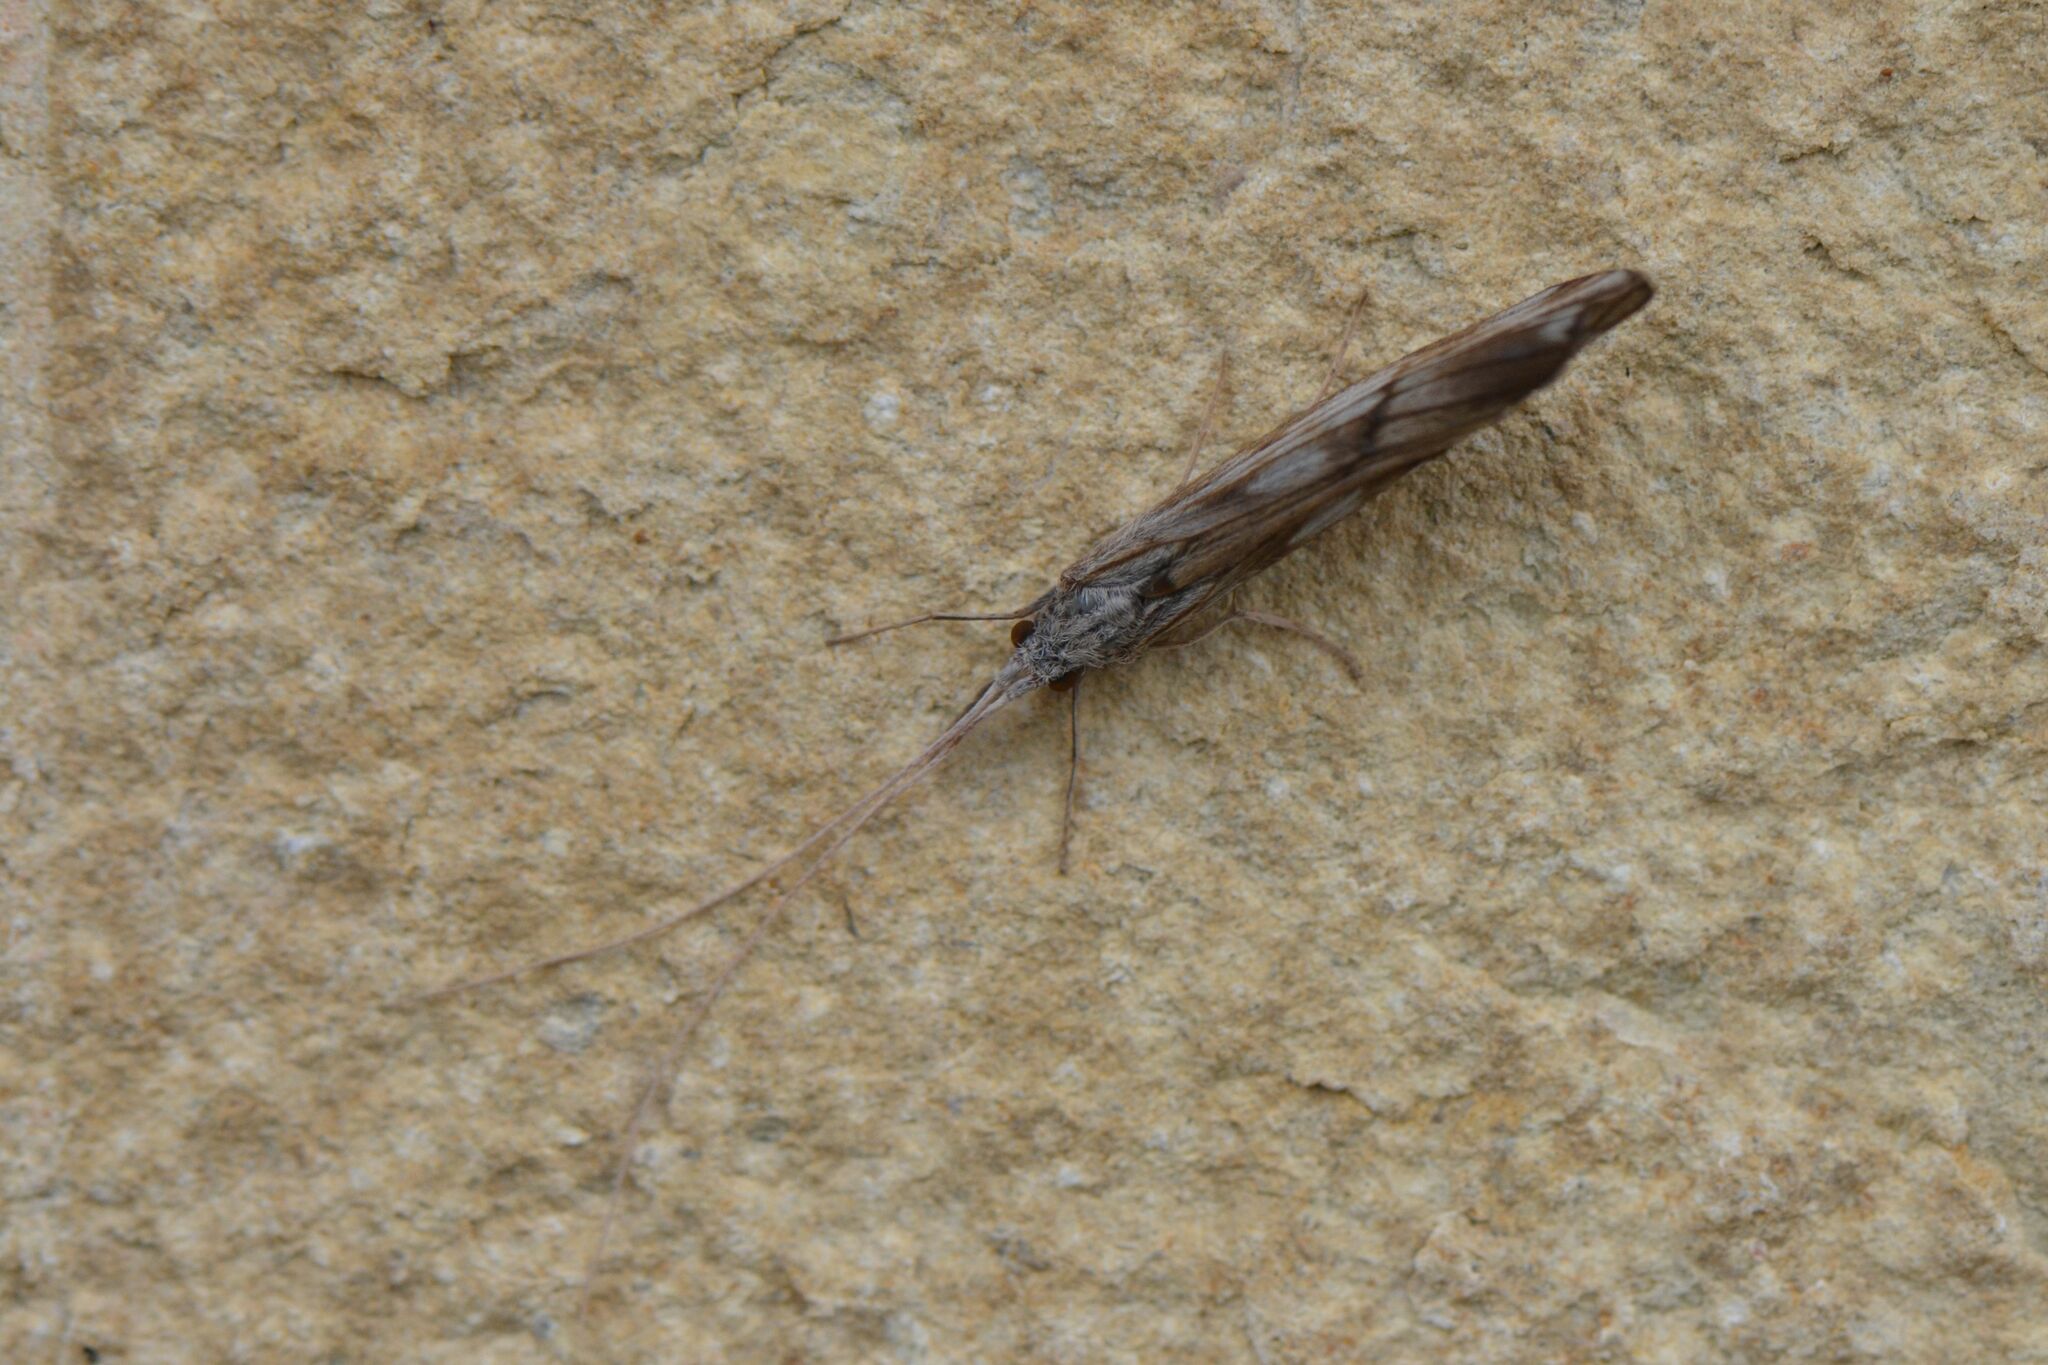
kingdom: Animalia
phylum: Arthropoda
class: Insecta
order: Trichoptera
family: Odontoceridae
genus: Odontocerum
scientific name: Odontocerum albicorne
